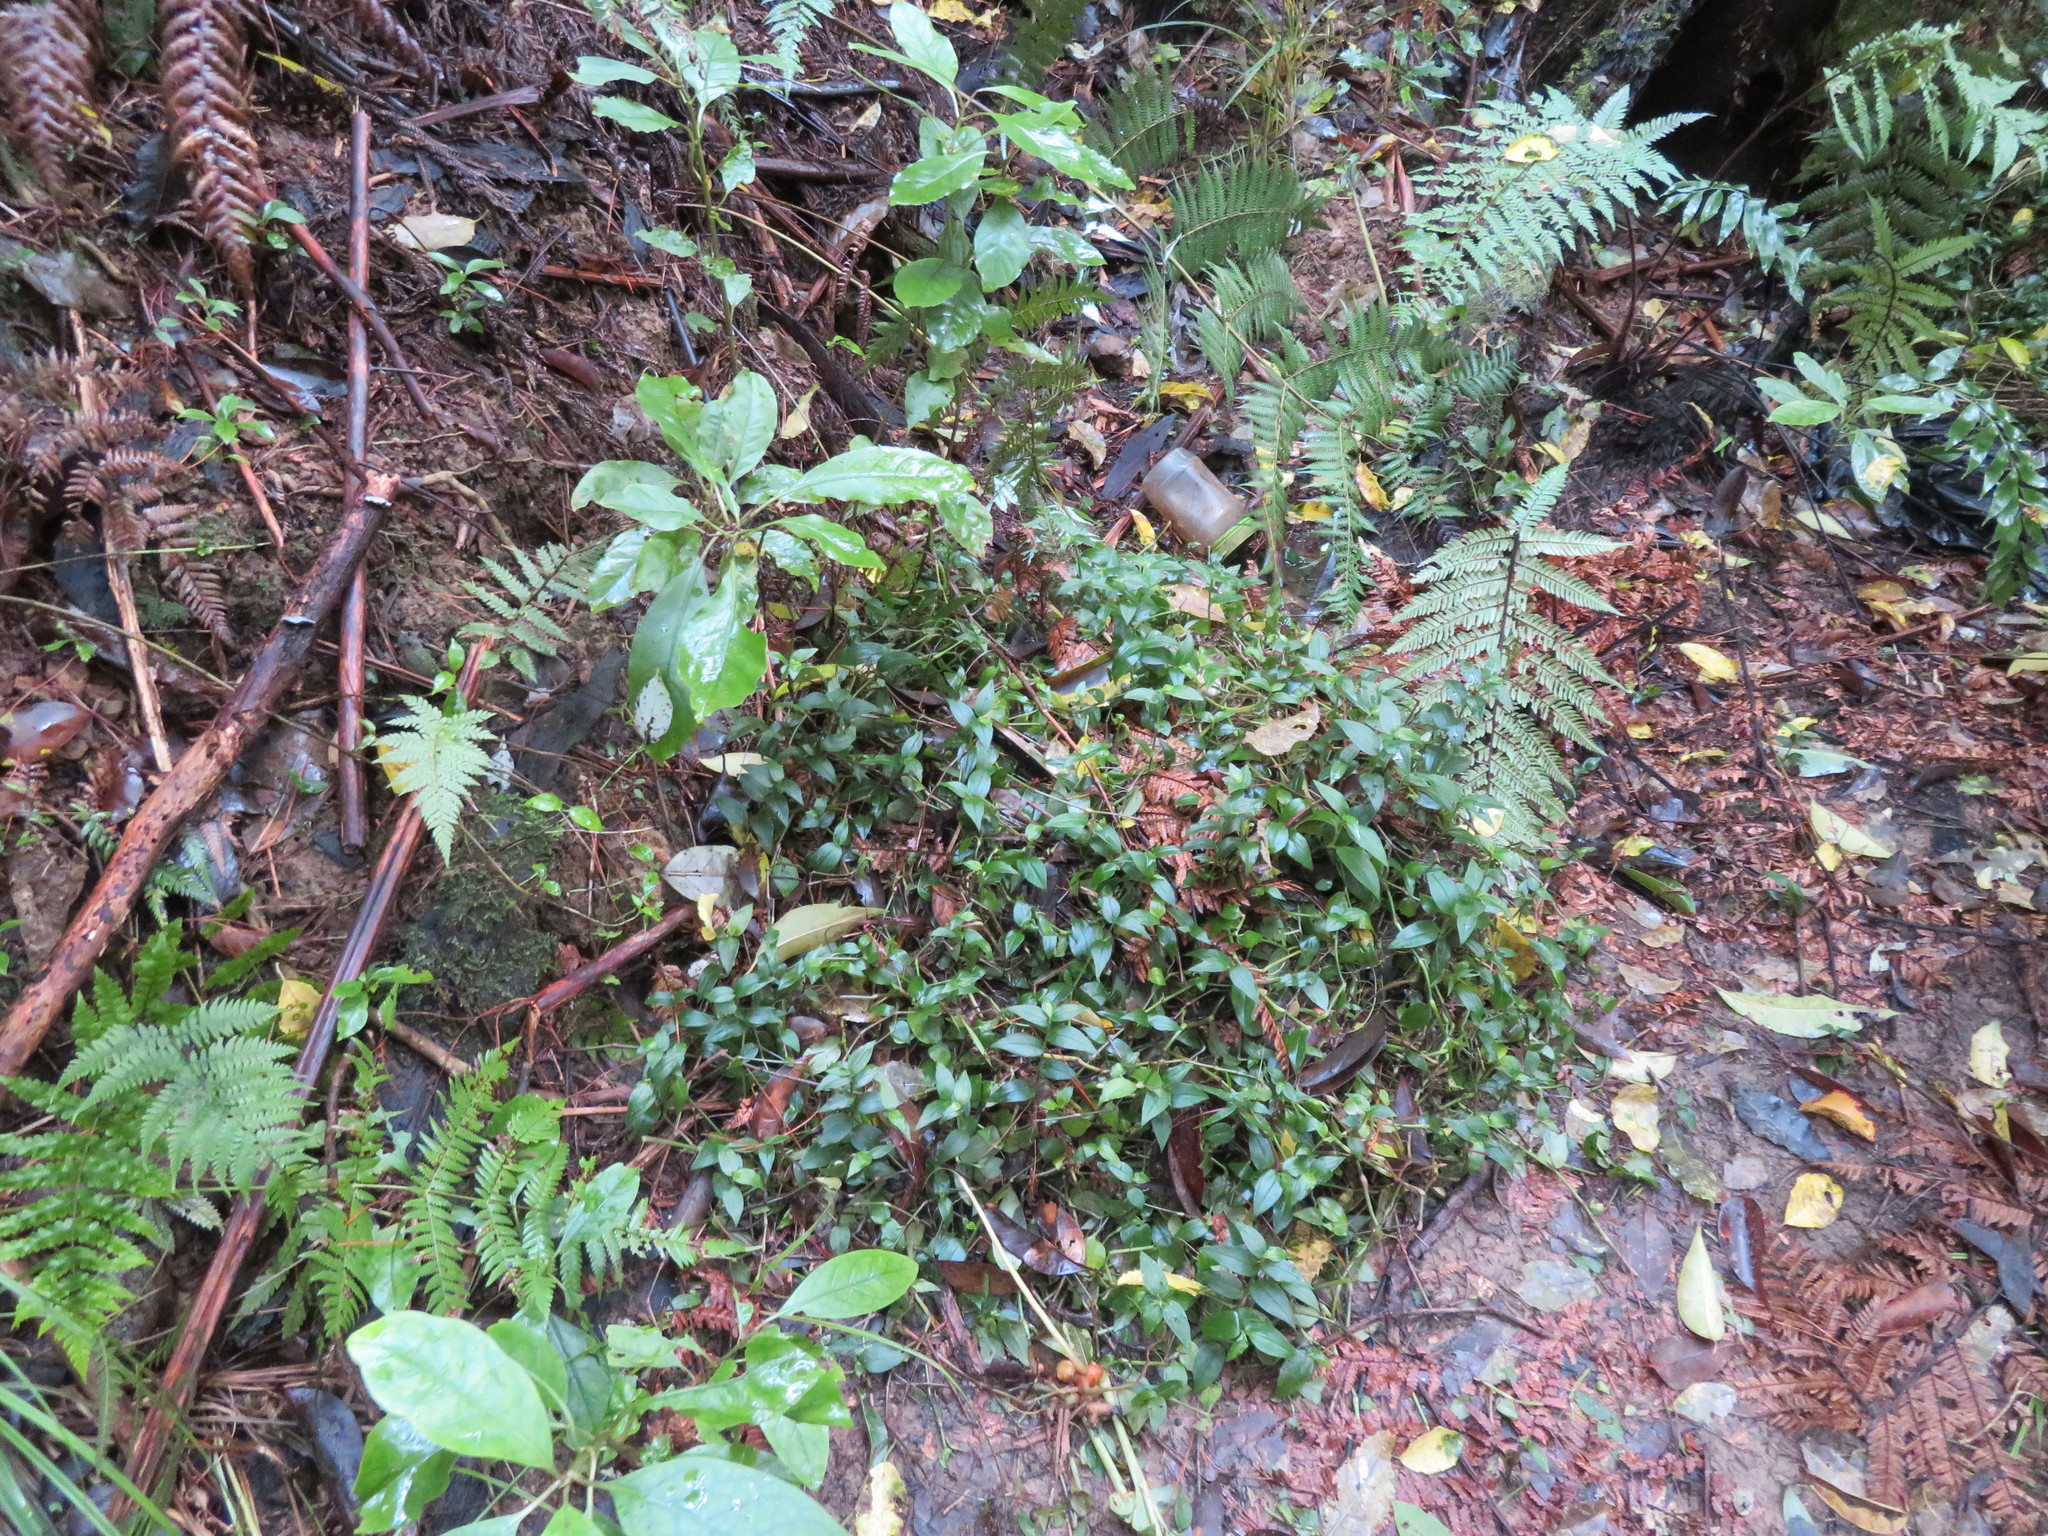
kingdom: Plantae
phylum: Tracheophyta
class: Liliopsida
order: Commelinales
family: Commelinaceae
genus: Tradescantia
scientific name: Tradescantia fluminensis
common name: Wandering-jew
